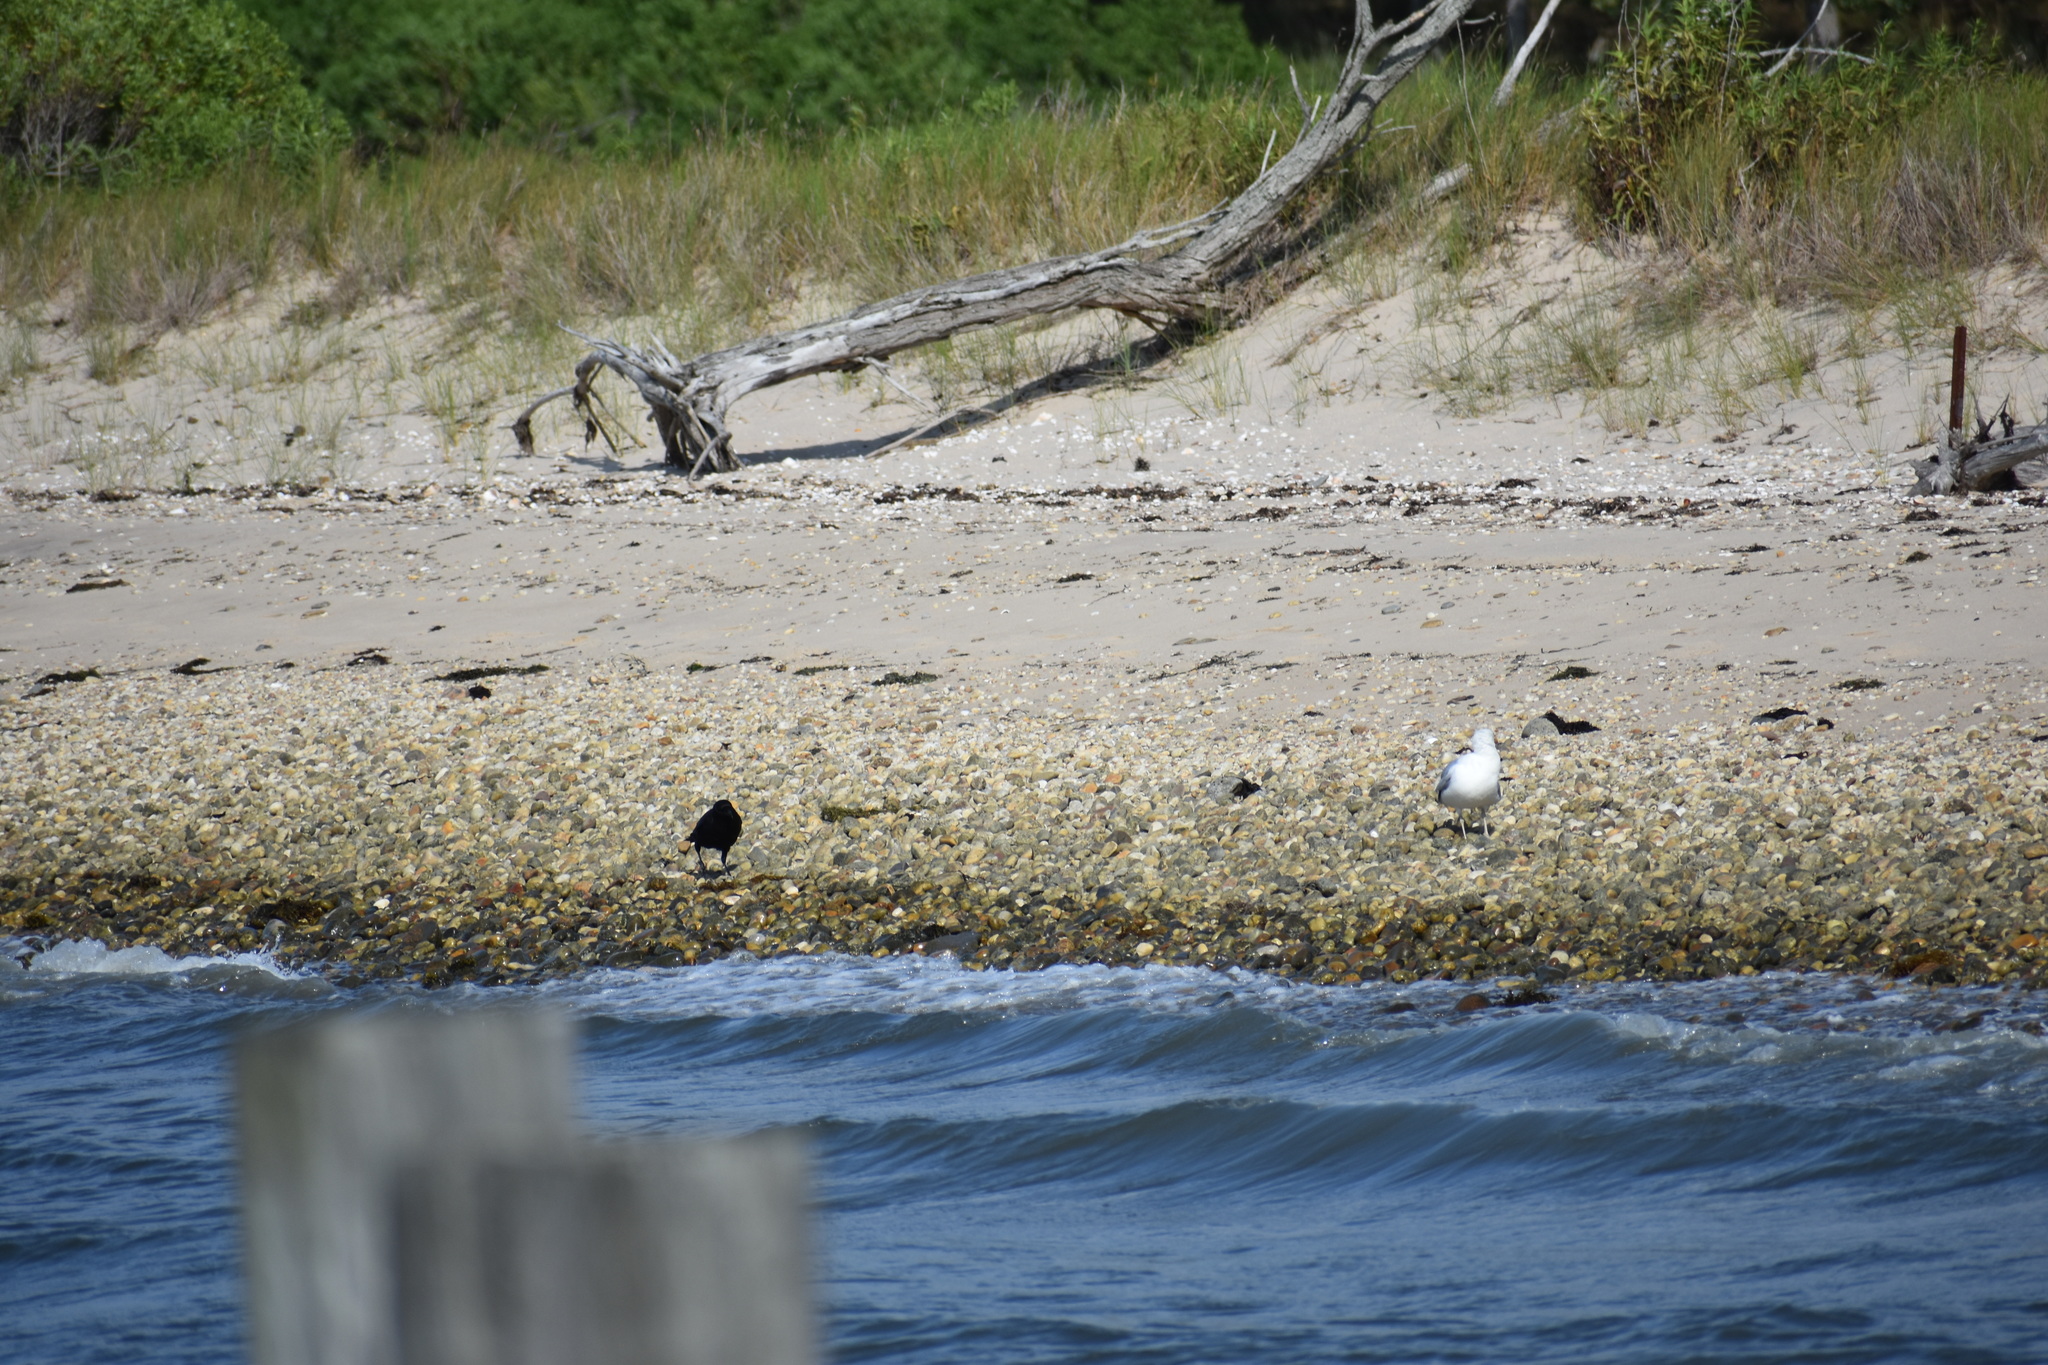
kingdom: Animalia
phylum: Chordata
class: Aves
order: Charadriiformes
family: Laridae
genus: Larus
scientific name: Larus argentatus
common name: Herring gull
